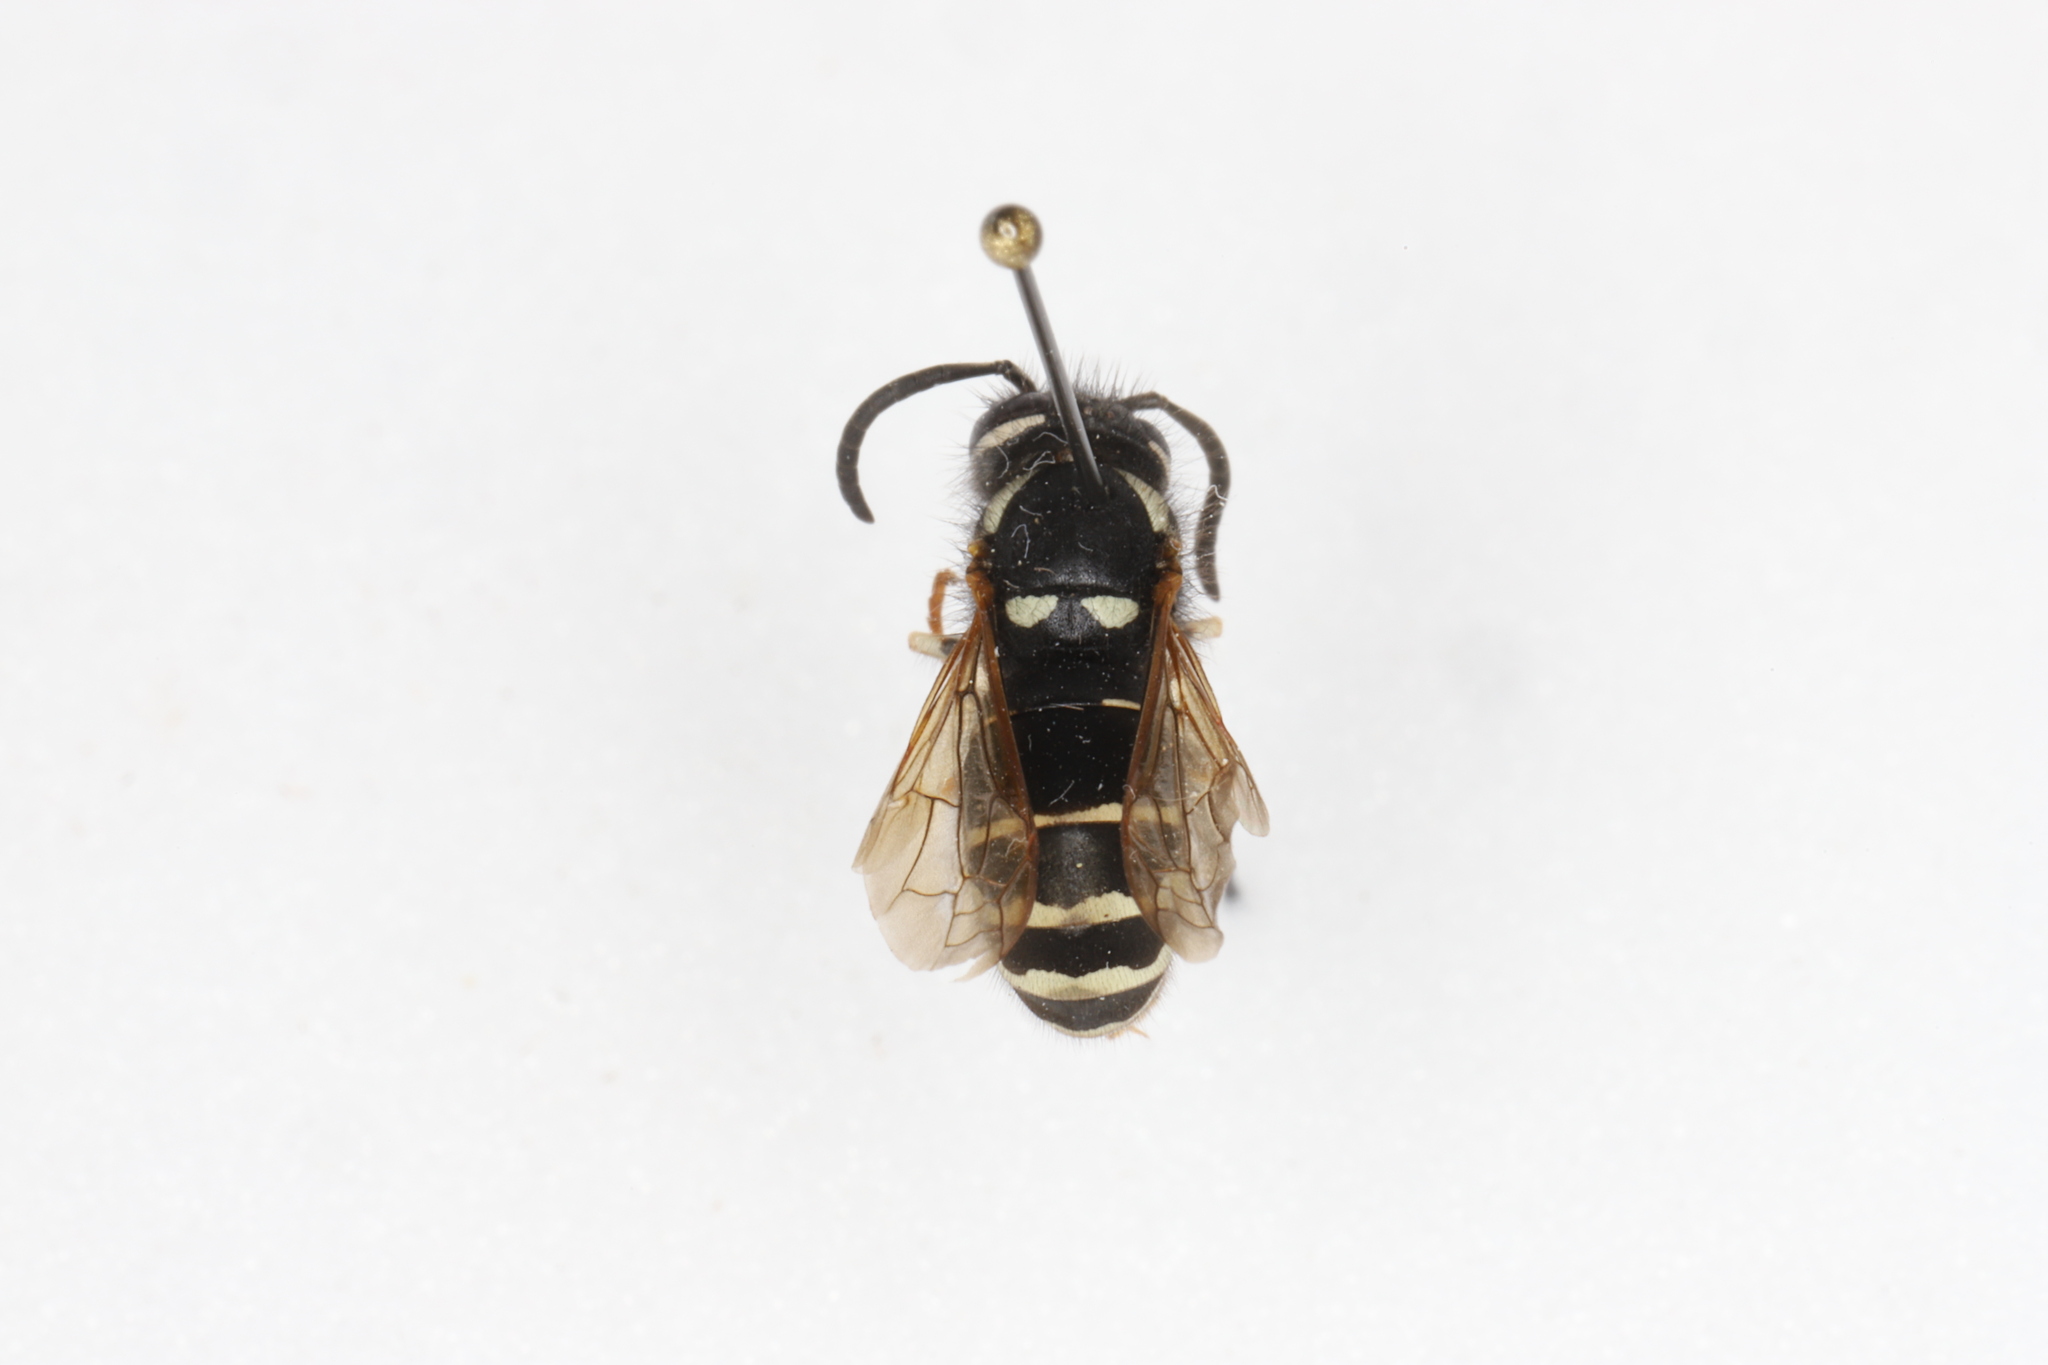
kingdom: Animalia
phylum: Arthropoda
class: Insecta
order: Hymenoptera
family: Vespidae
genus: Vespula
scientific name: Vespula consobrina
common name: Blackjacket
